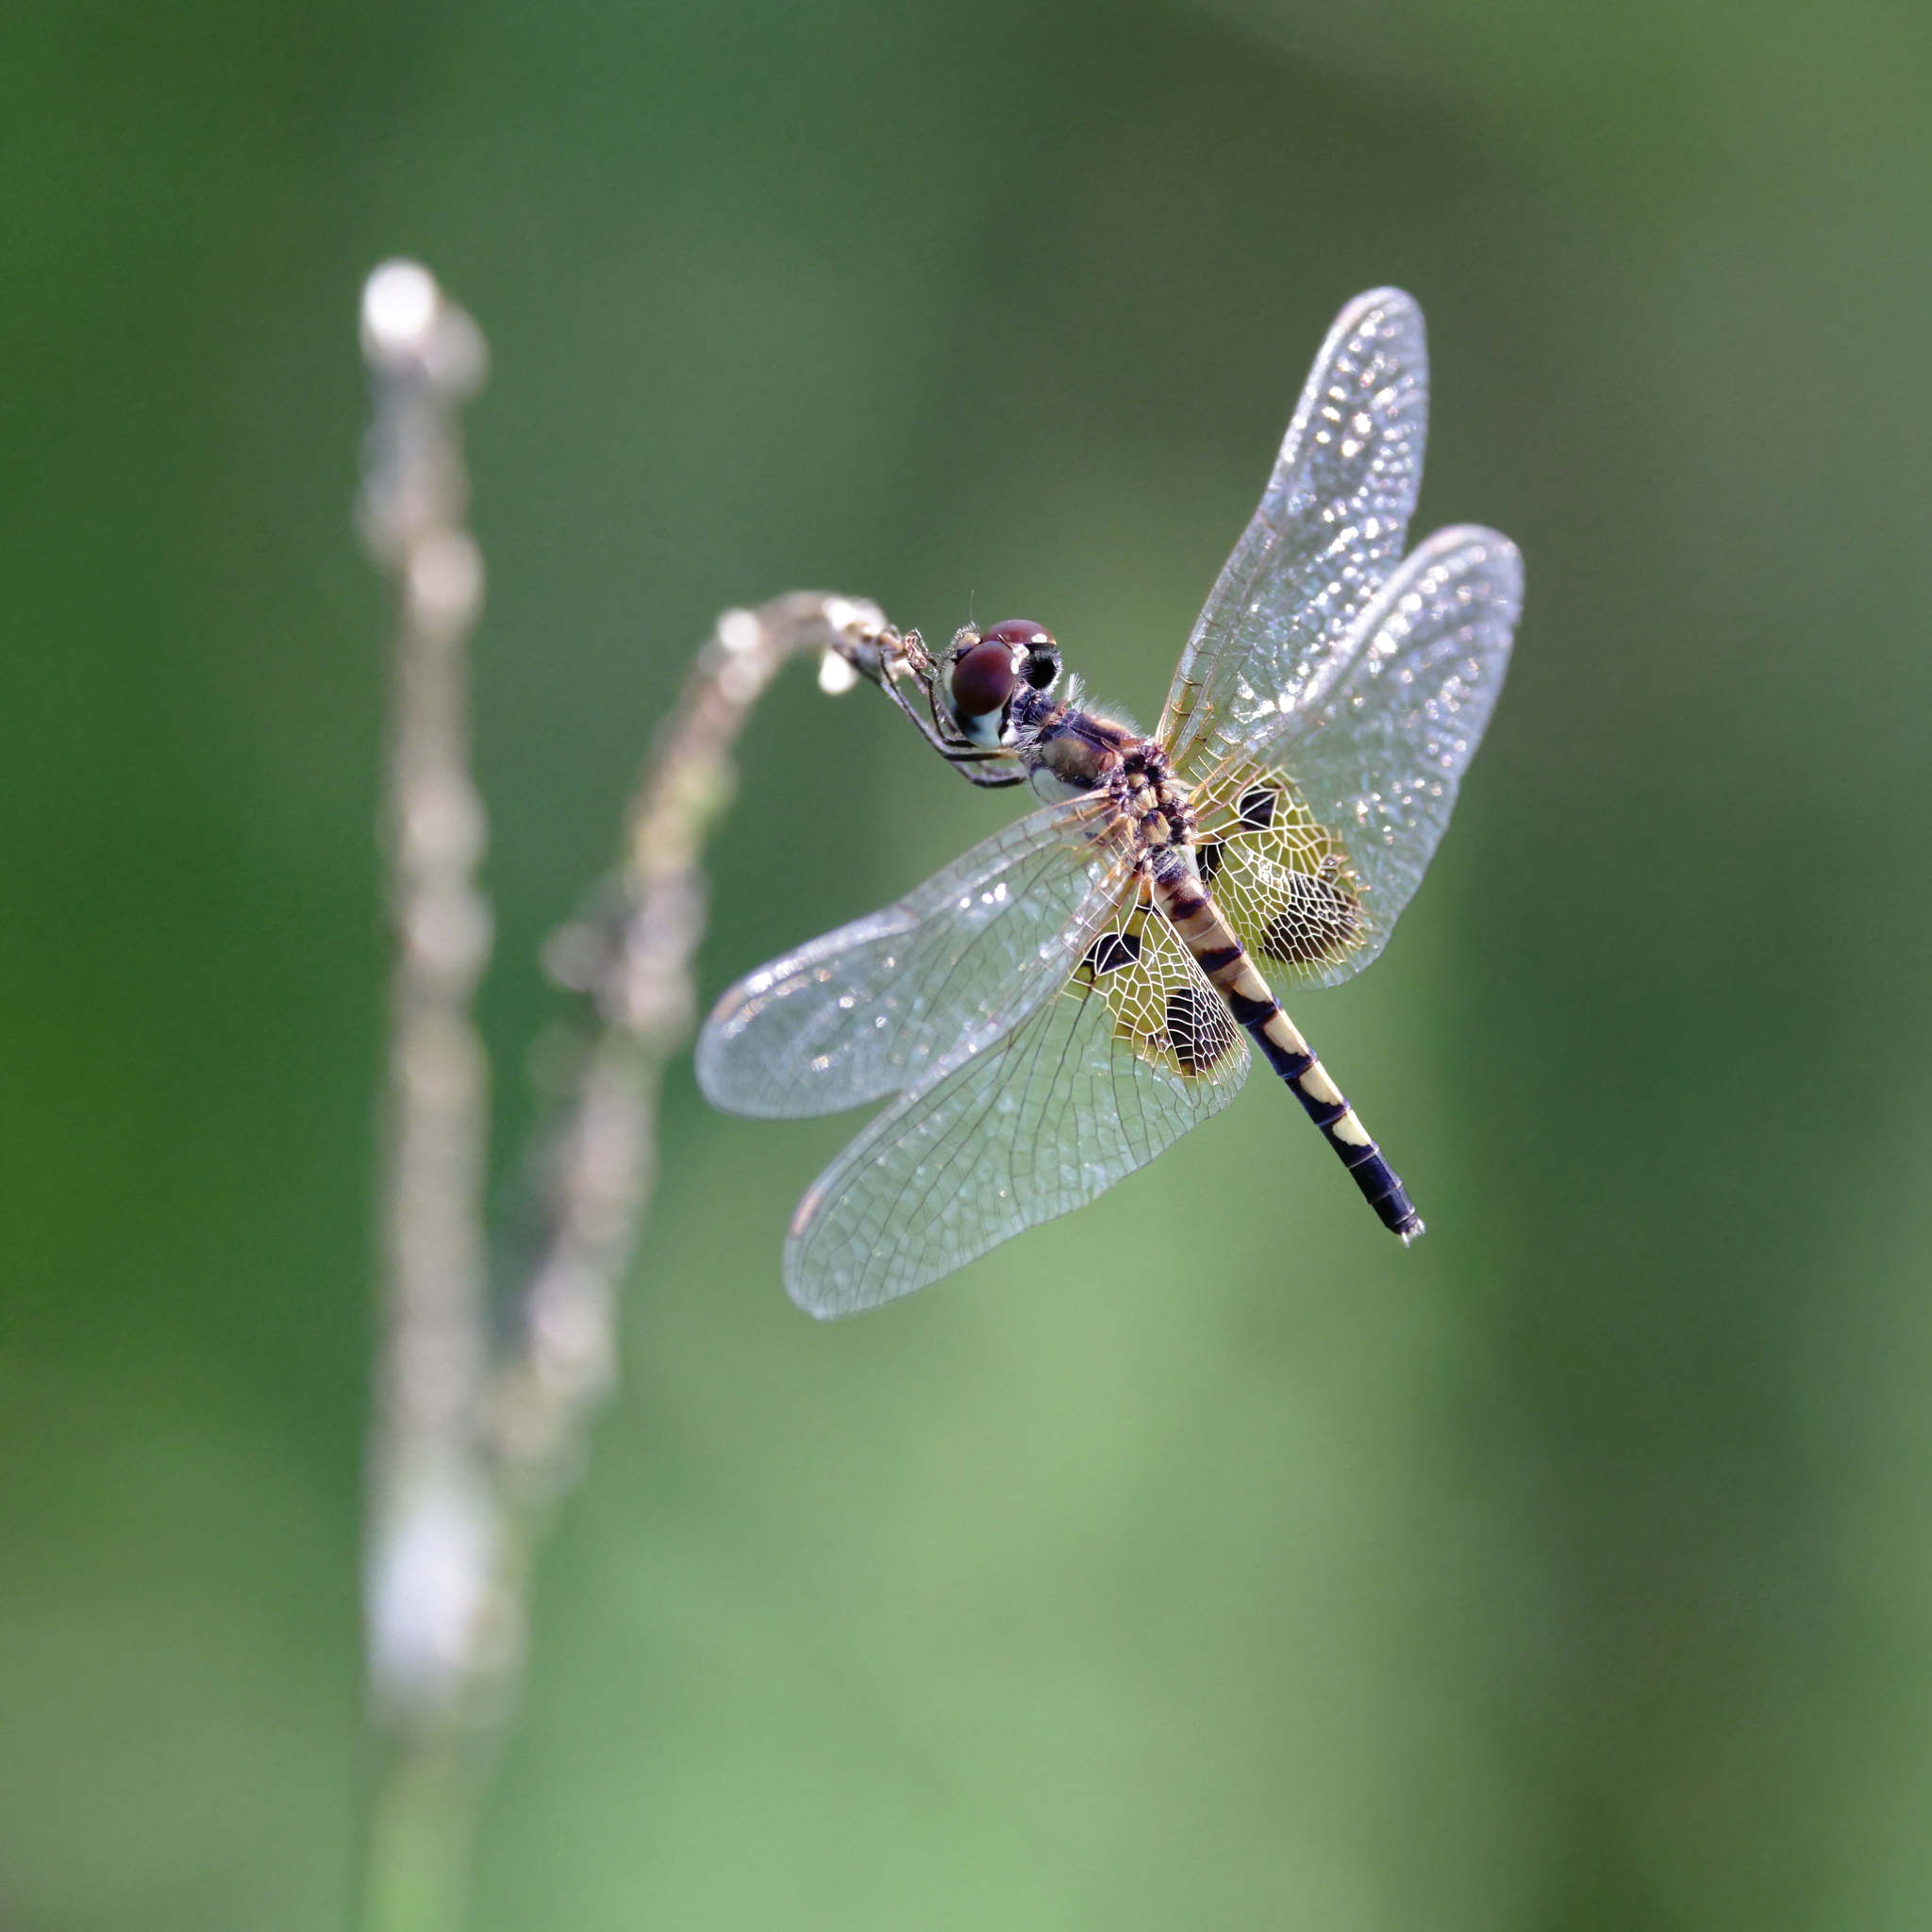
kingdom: Animalia
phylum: Arthropoda
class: Insecta
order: Odonata
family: Libellulidae
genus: Celithemis
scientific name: Celithemis amanda
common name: Amanda's pennant
